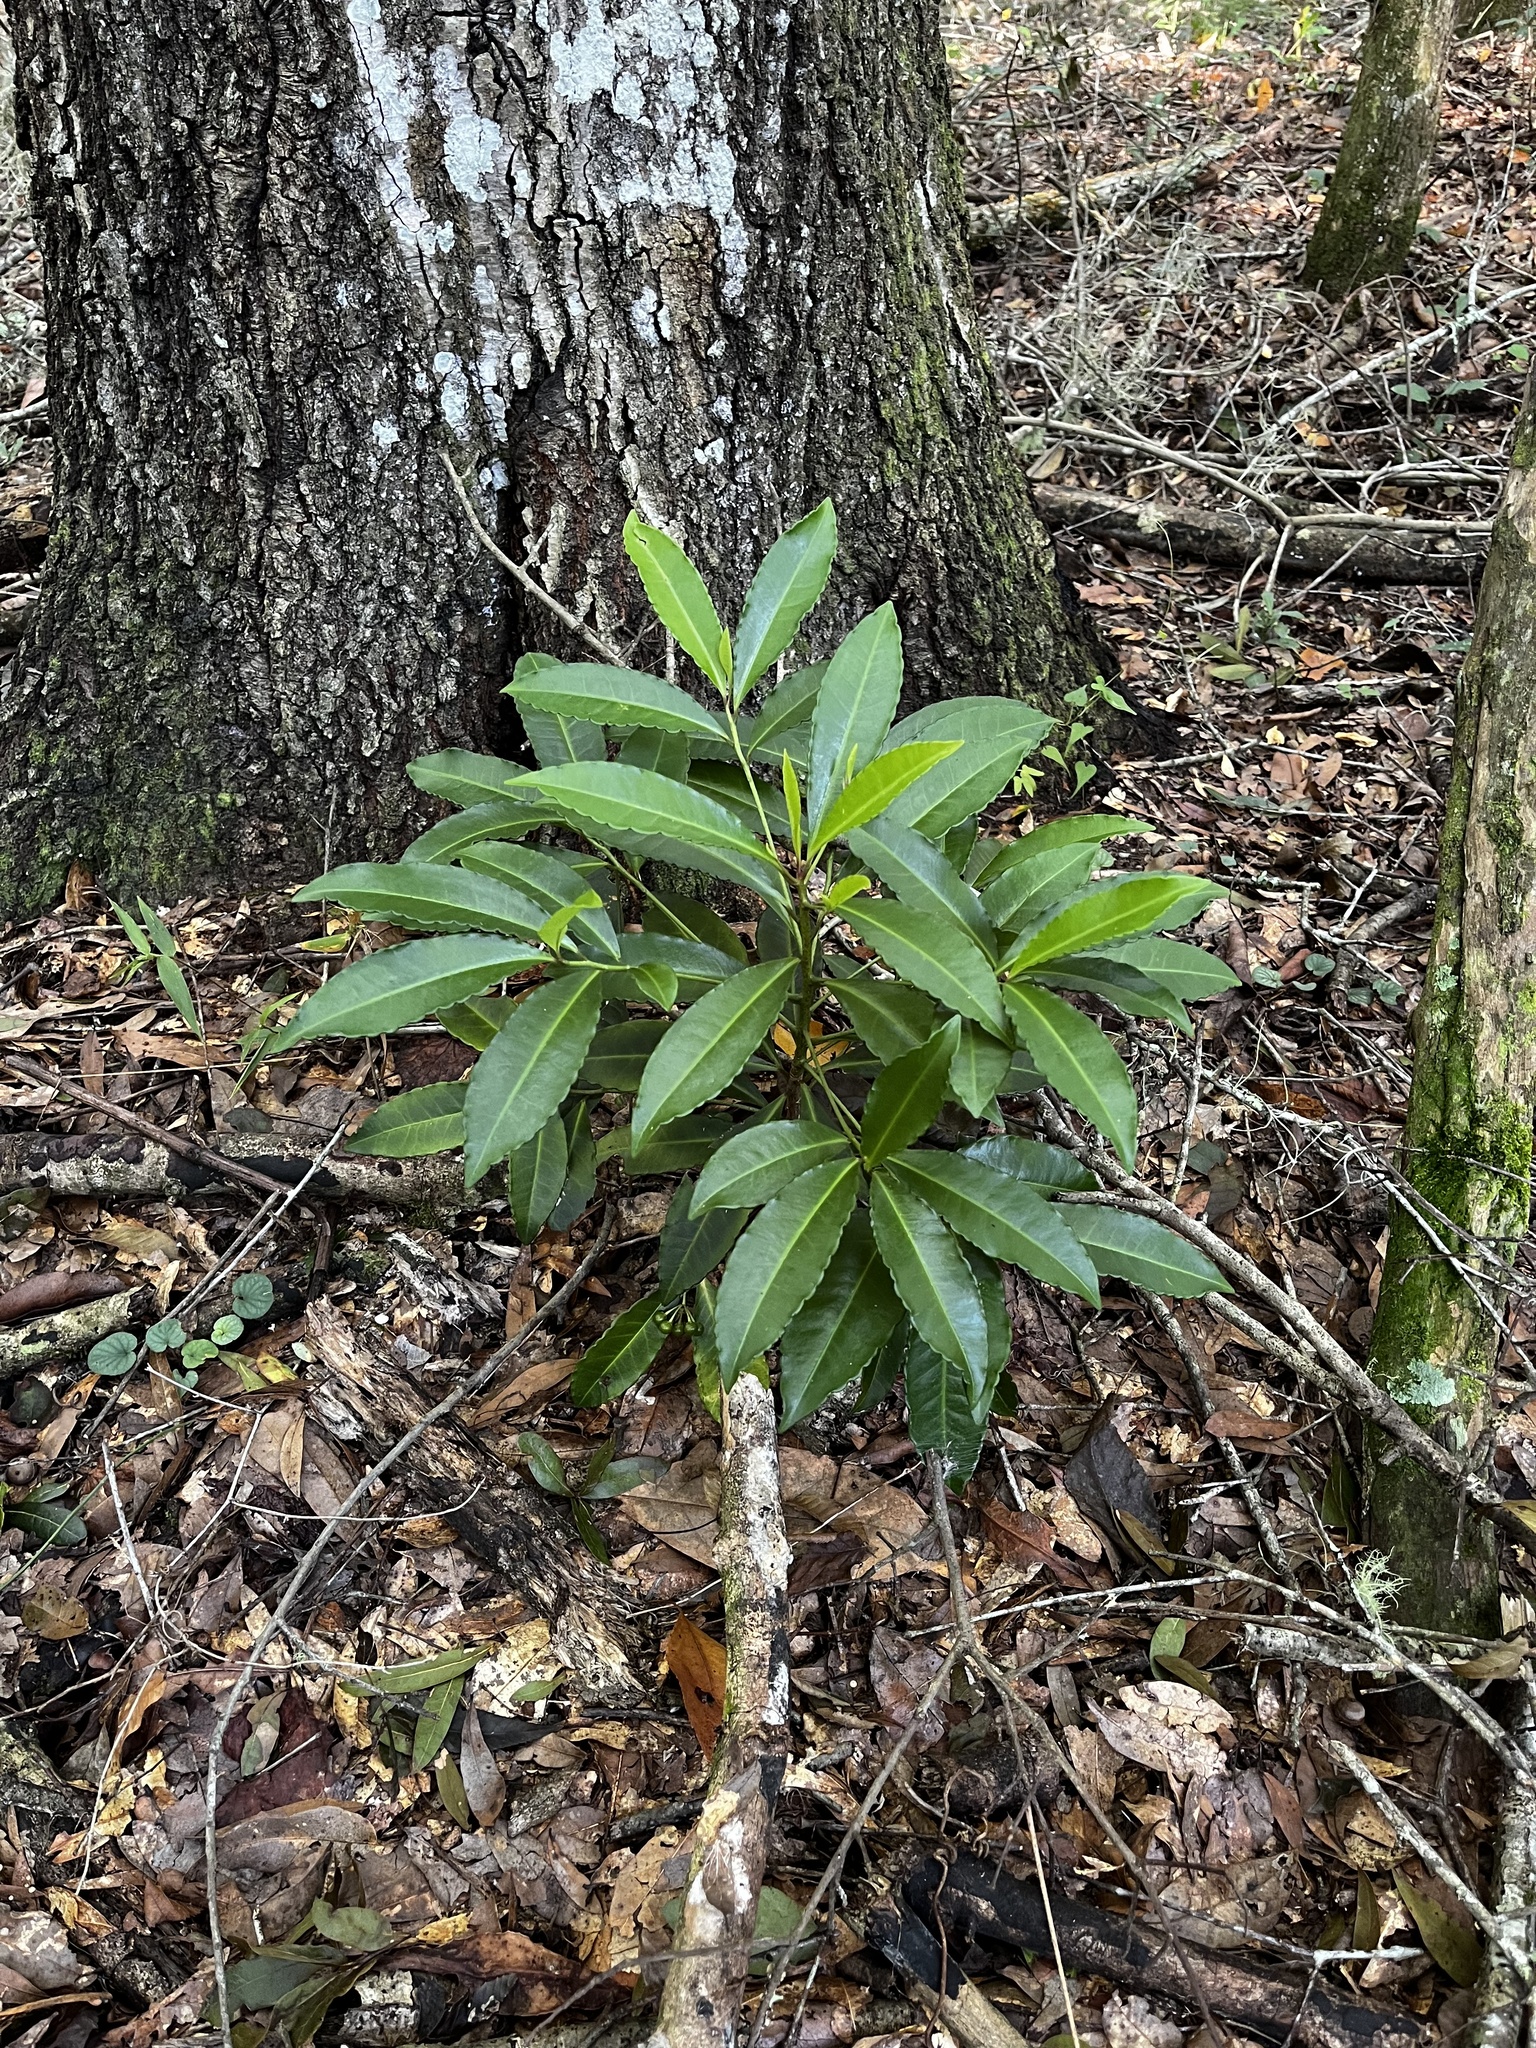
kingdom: Plantae
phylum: Tracheophyta
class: Magnoliopsida
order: Ericales
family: Primulaceae
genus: Ardisia
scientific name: Ardisia crenata
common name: Hen's eyes
